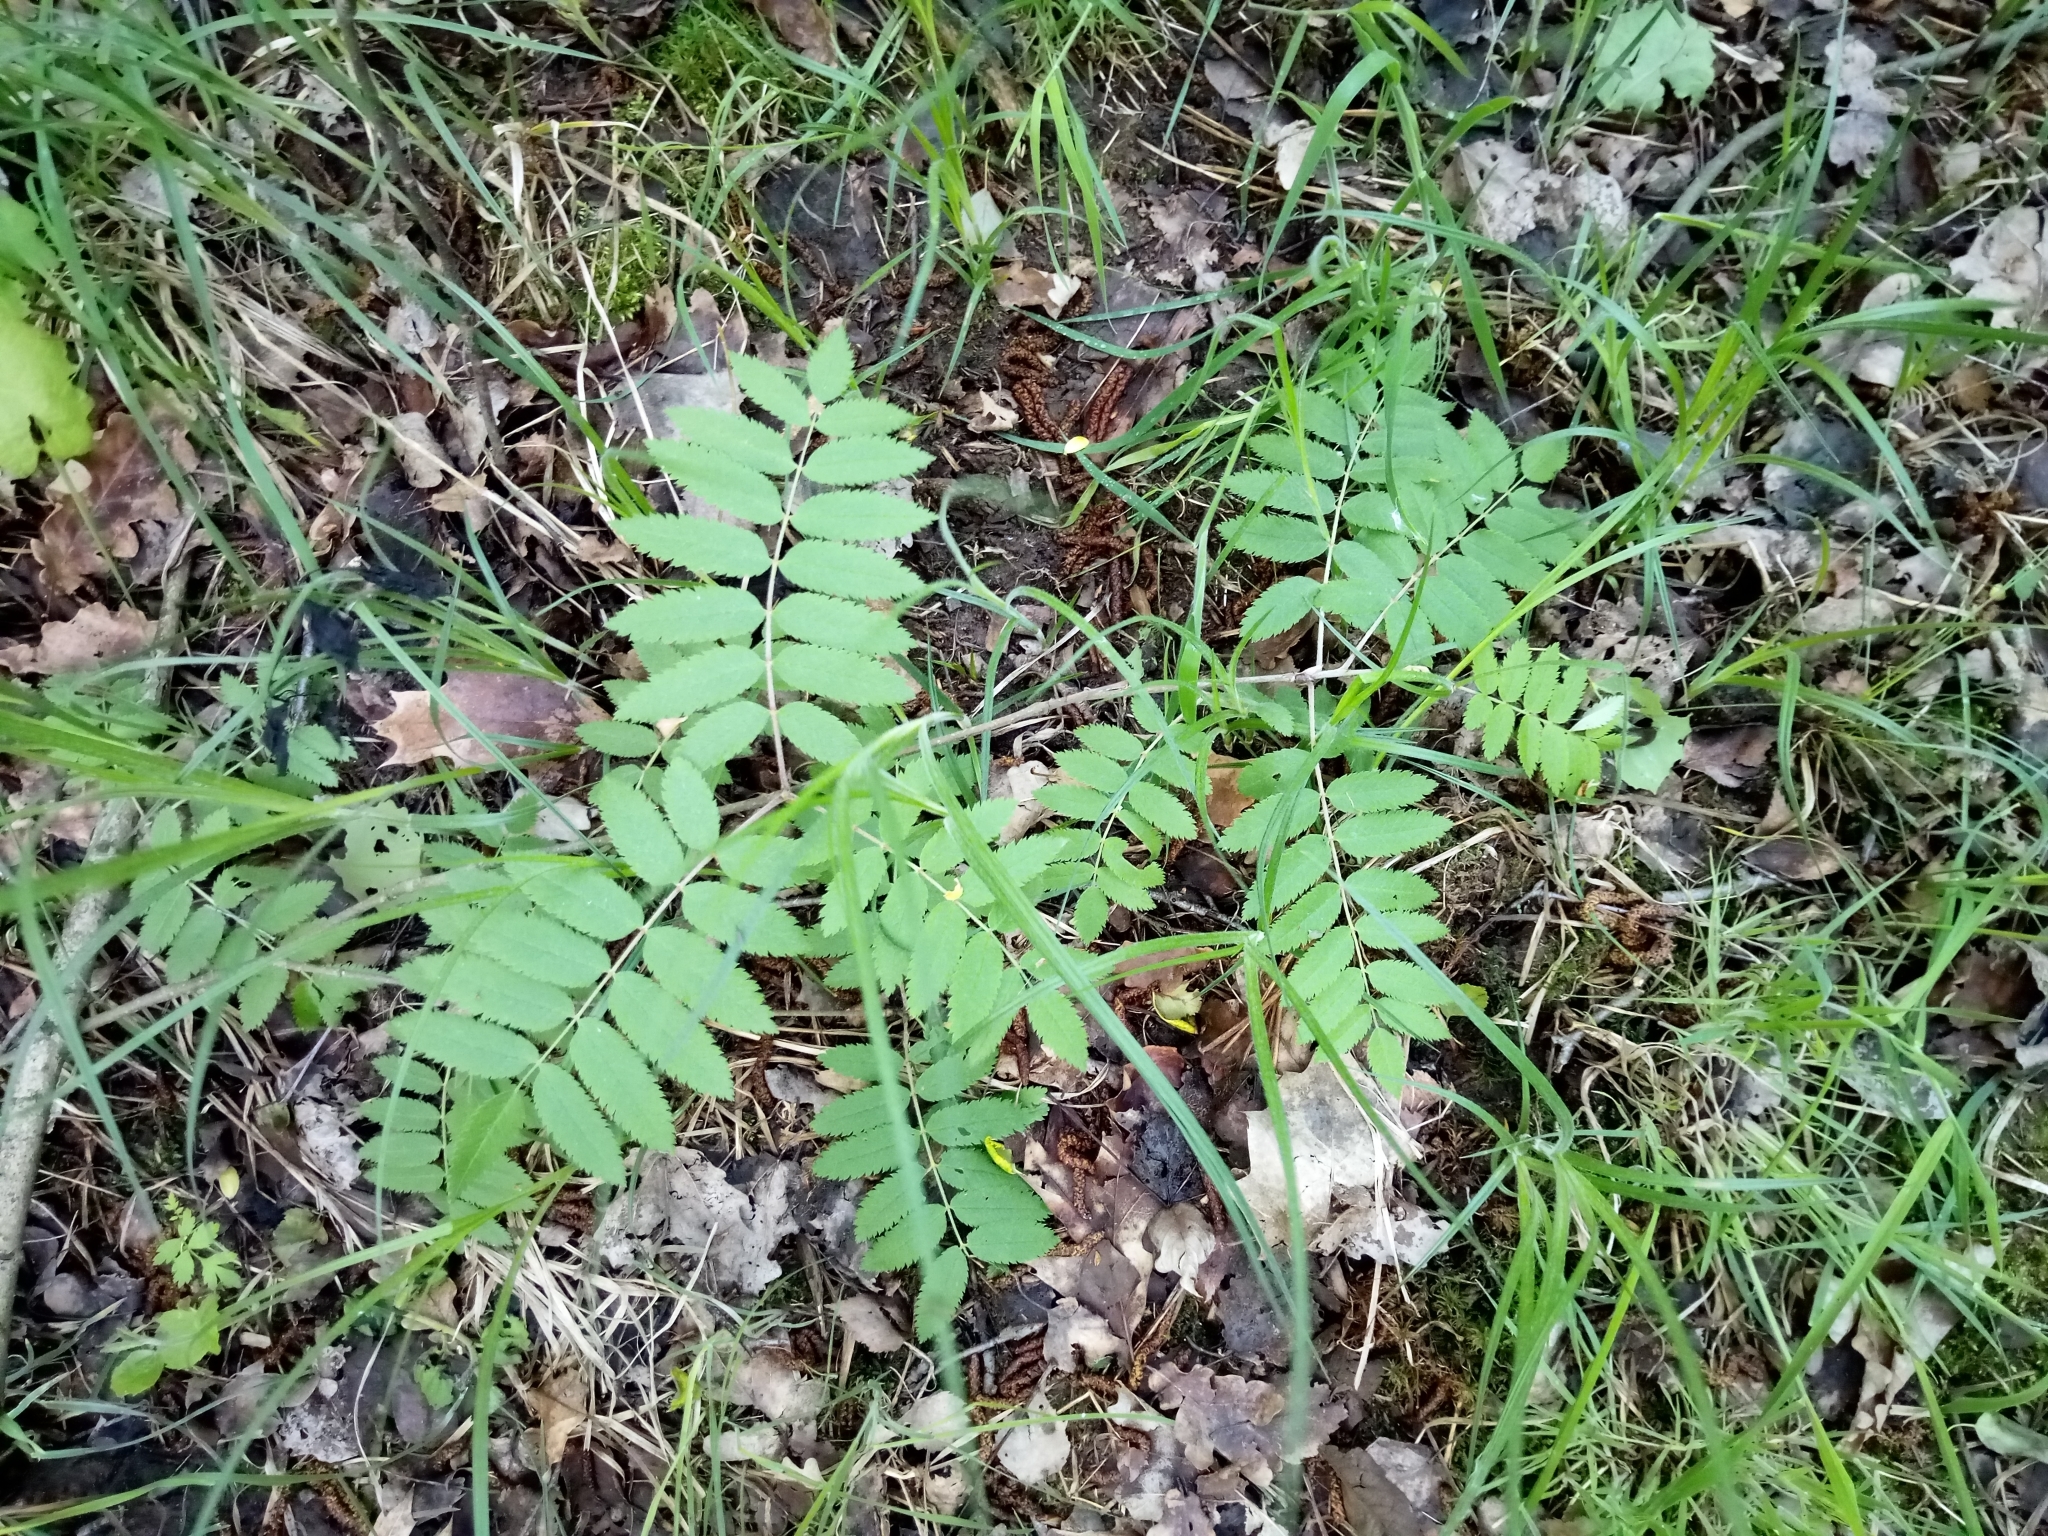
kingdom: Plantae
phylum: Tracheophyta
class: Magnoliopsida
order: Rosales
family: Rosaceae
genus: Sorbus
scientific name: Sorbus aucuparia
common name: Rowan
